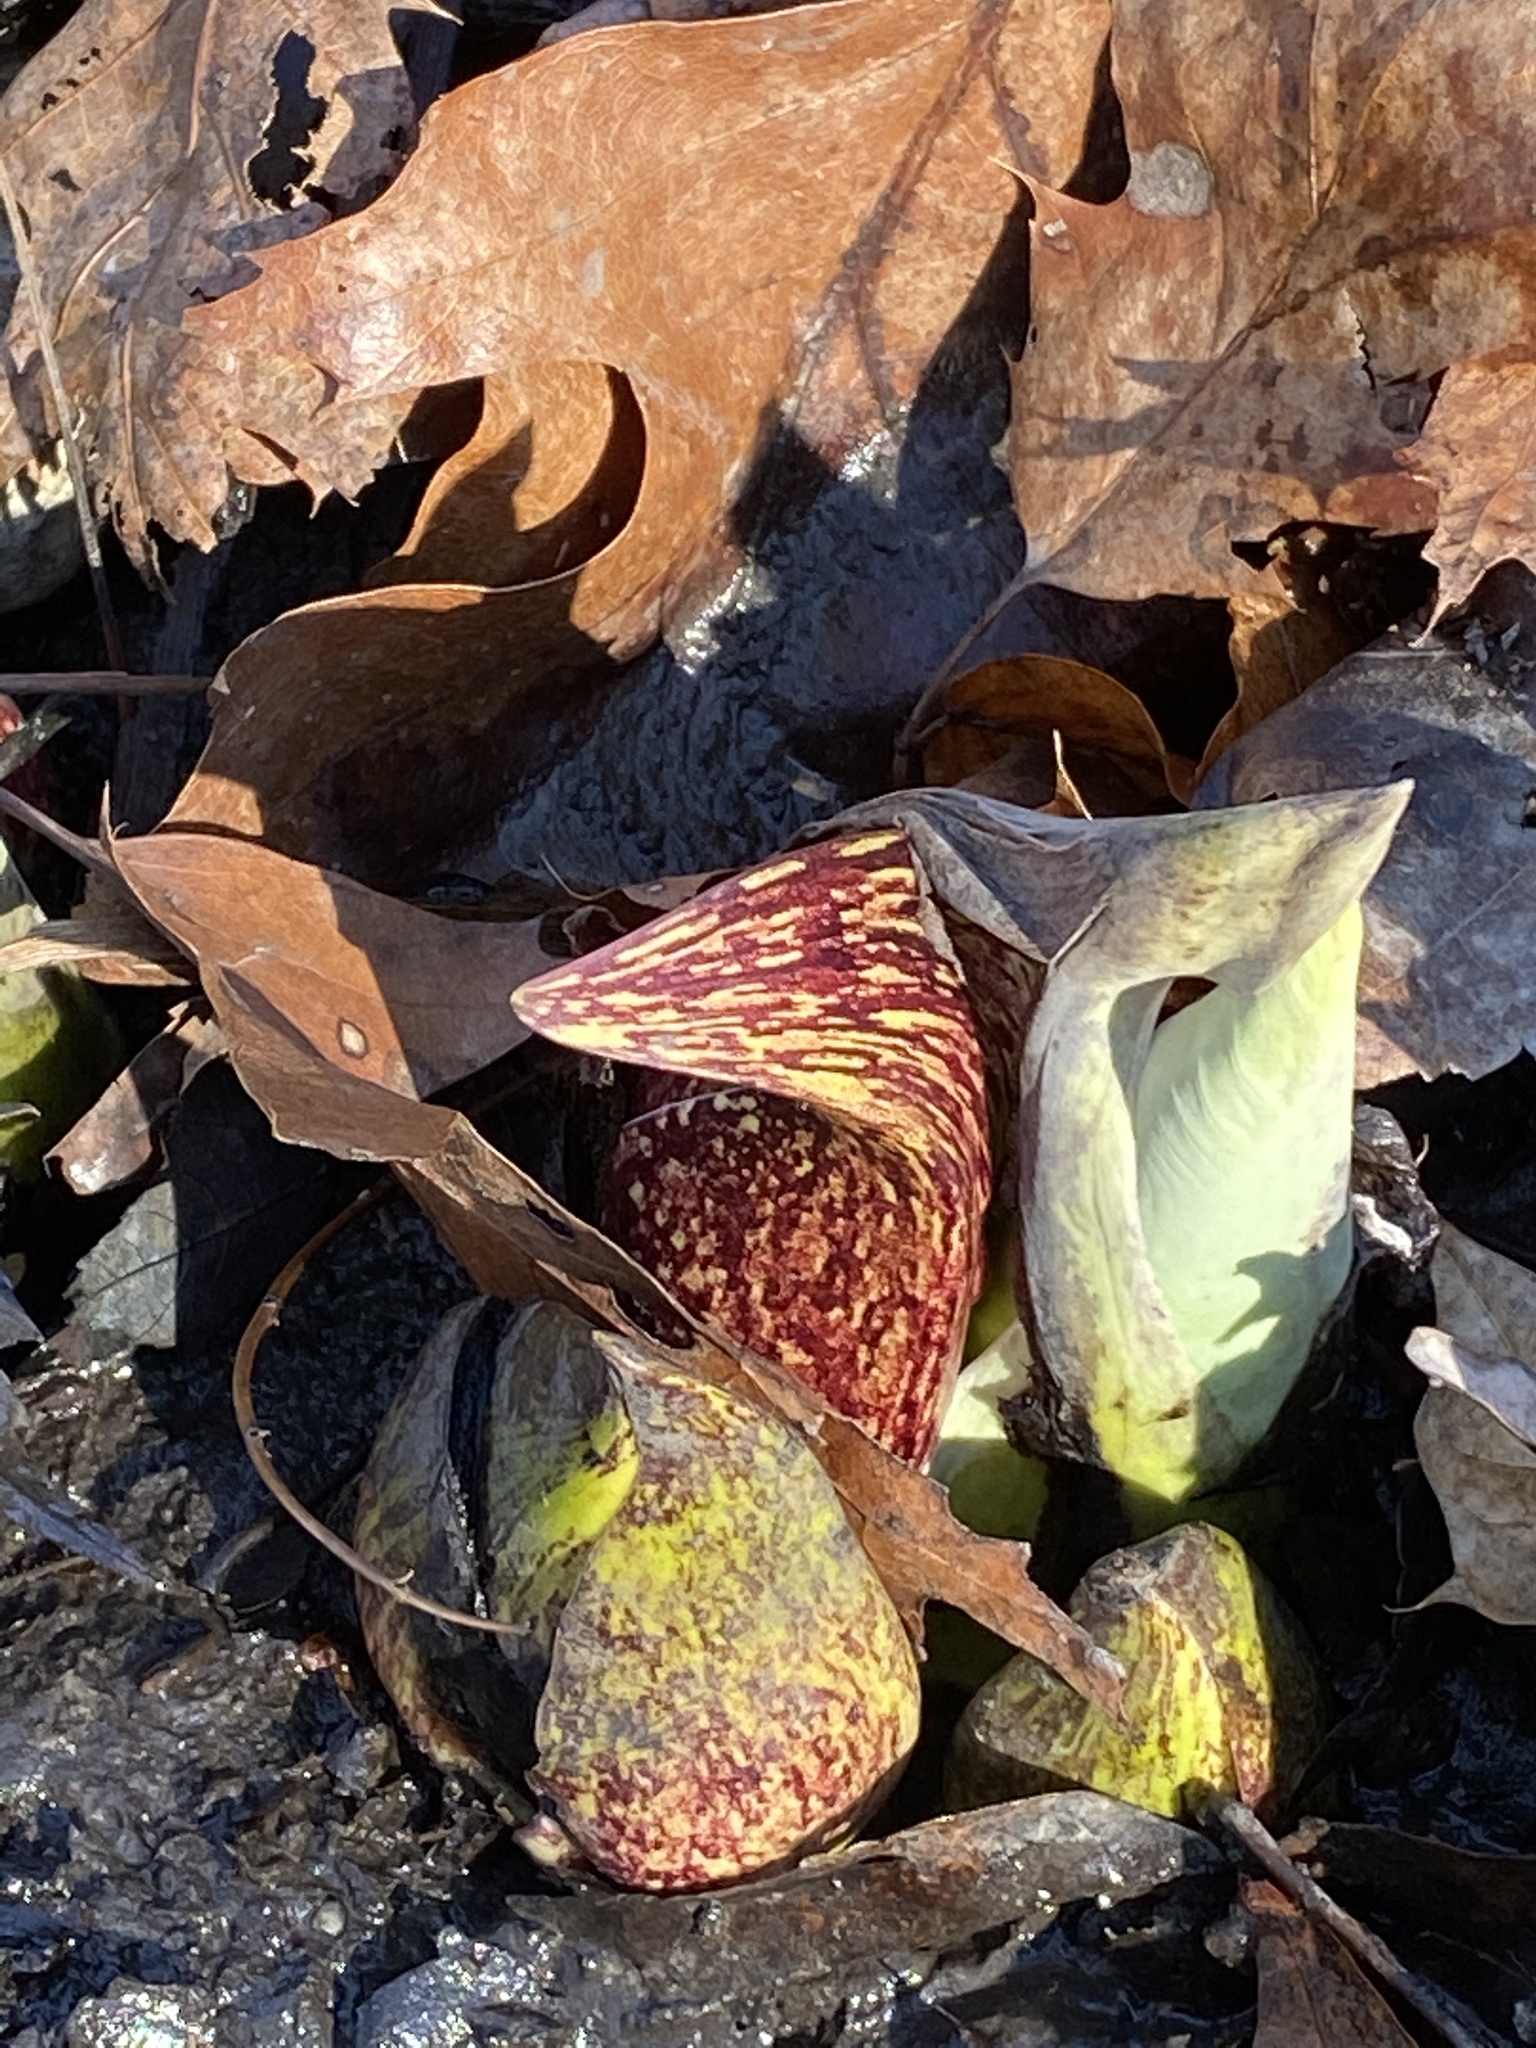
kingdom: Plantae
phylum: Tracheophyta
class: Liliopsida
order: Alismatales
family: Araceae
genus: Symplocarpus
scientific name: Symplocarpus foetidus
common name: Eastern skunk cabbage
